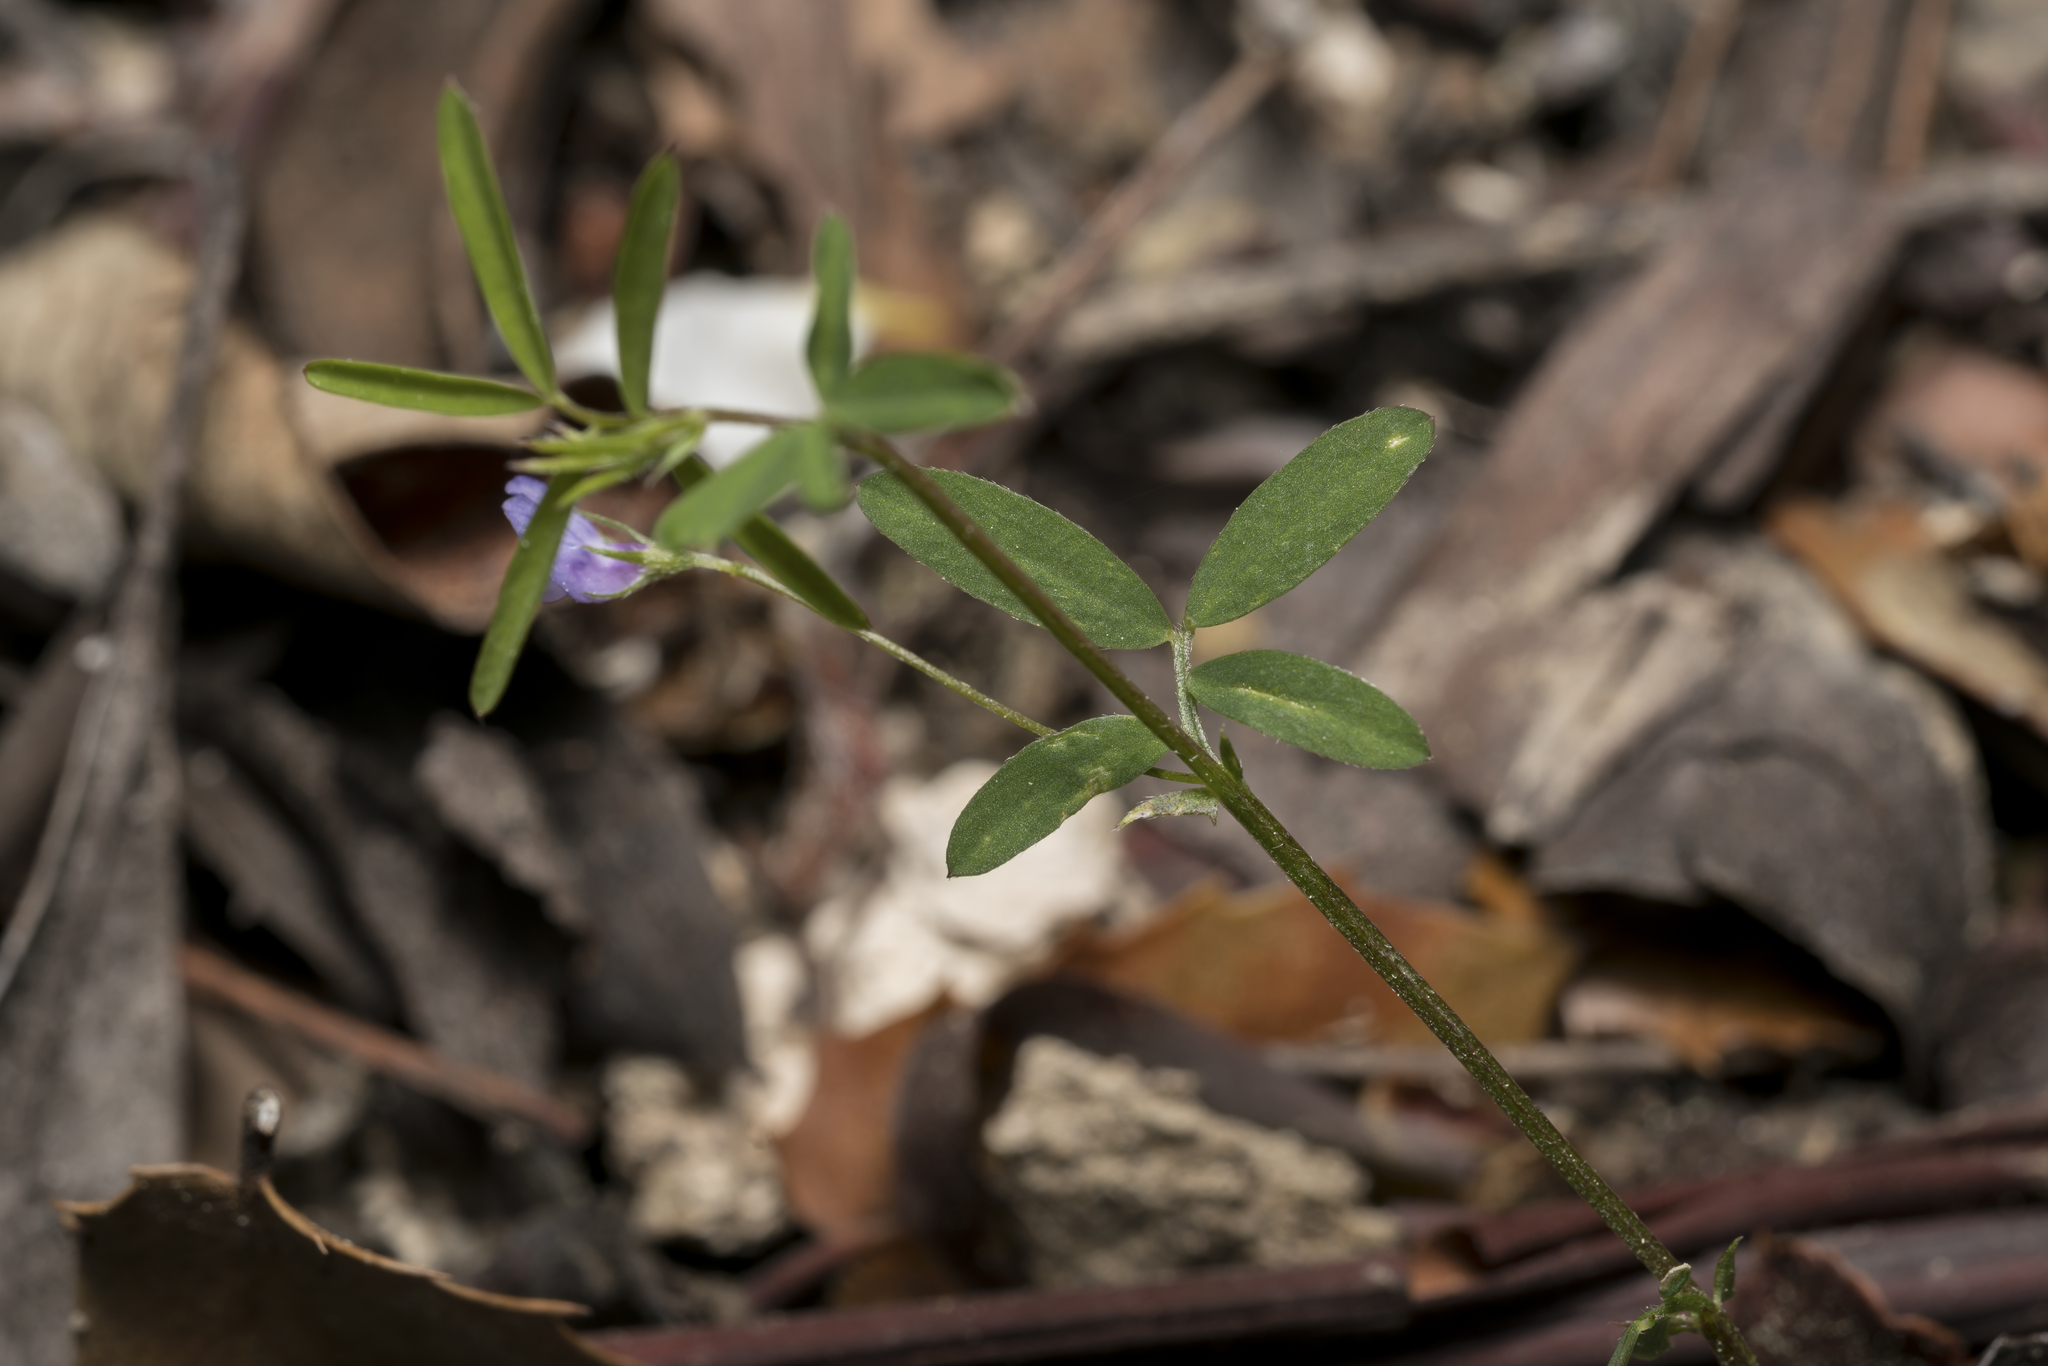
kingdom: Plantae
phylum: Tracheophyta
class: Magnoliopsida
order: Fabales
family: Fabaceae
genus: Vicia
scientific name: Vicia lenticula
